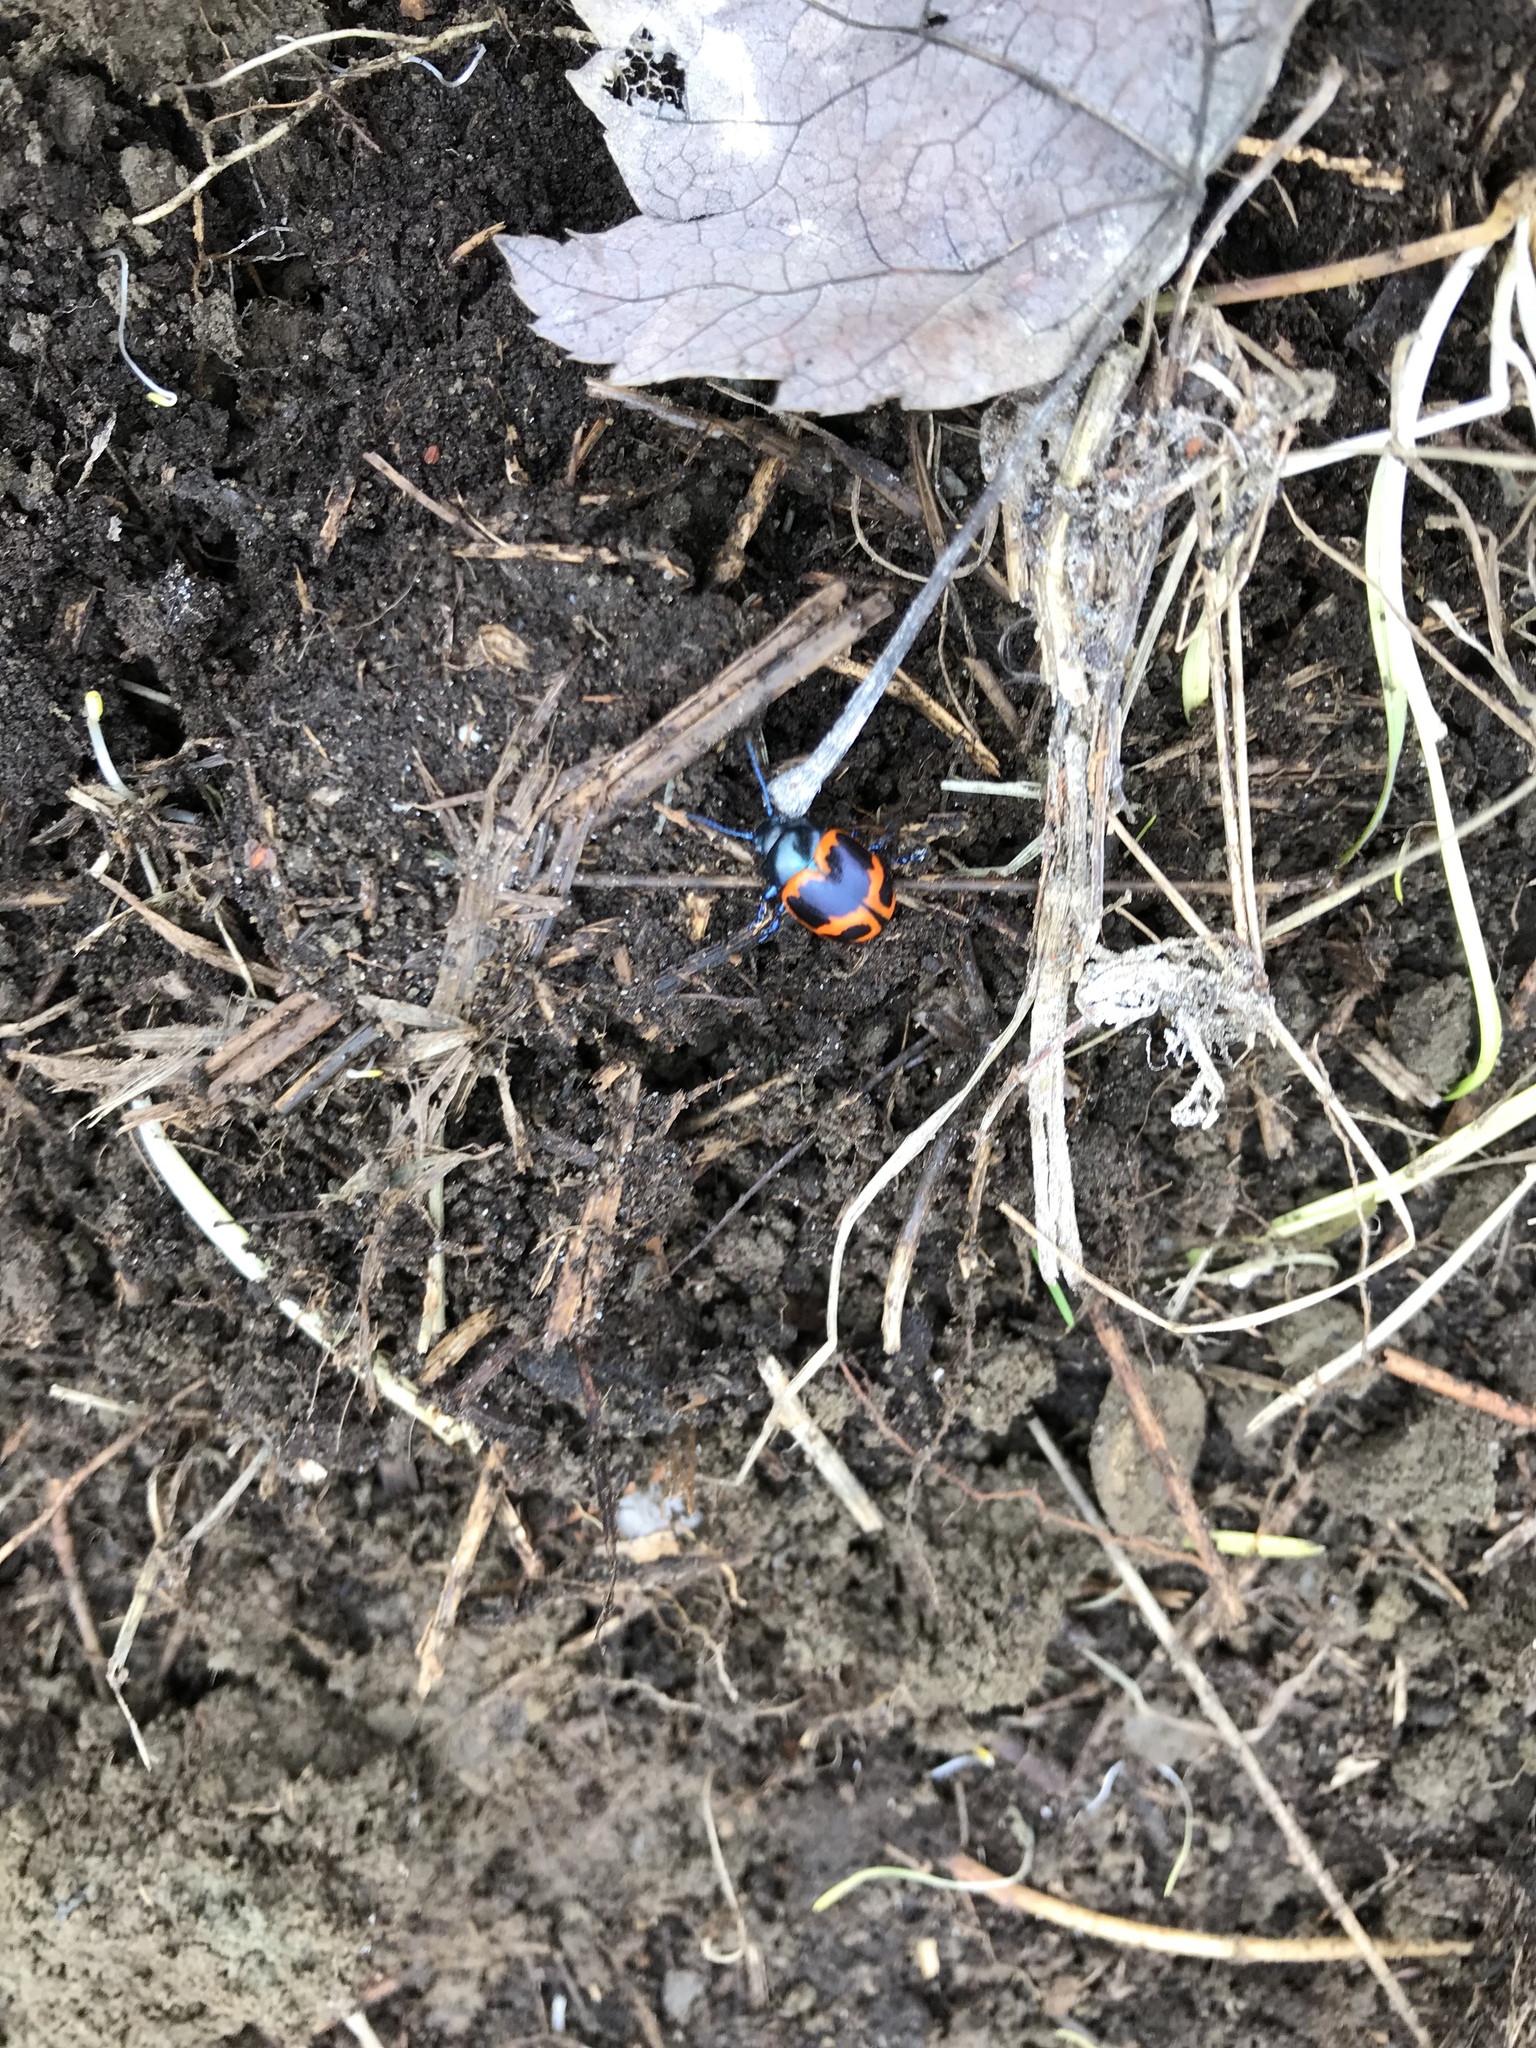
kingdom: Animalia
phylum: Arthropoda
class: Insecta
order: Coleoptera
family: Chrysomelidae
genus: Labidomera
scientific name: Labidomera clivicollis
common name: Swamp milkweed leaf beetle
